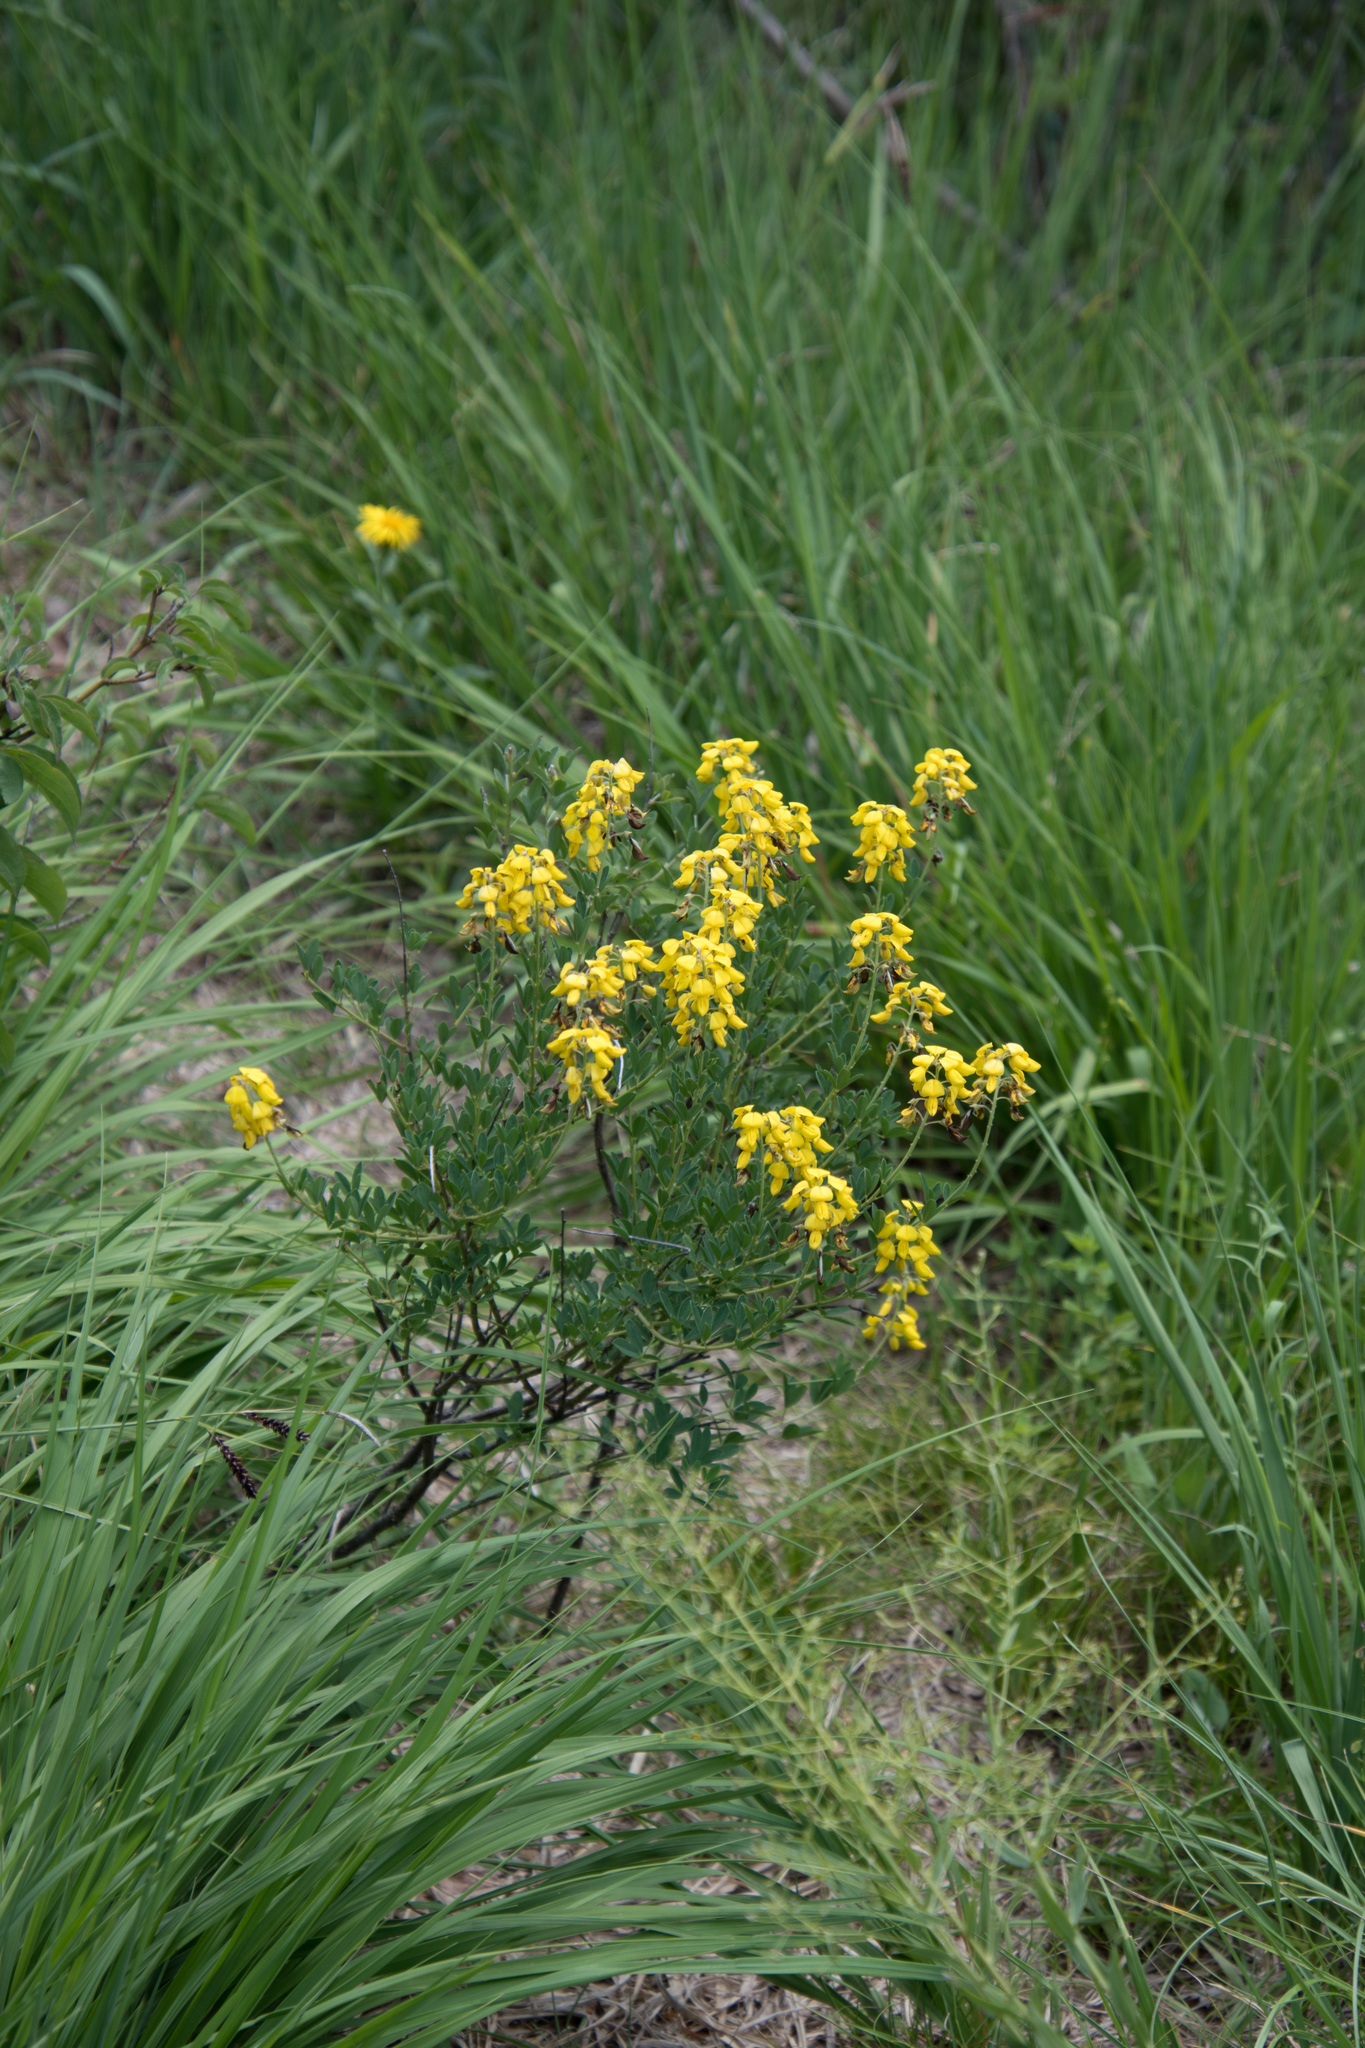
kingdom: Plantae
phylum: Tracheophyta
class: Magnoliopsida
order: Fabales
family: Fabaceae
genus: Cytisus
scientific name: Cytisus nigricans
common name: Black broom
